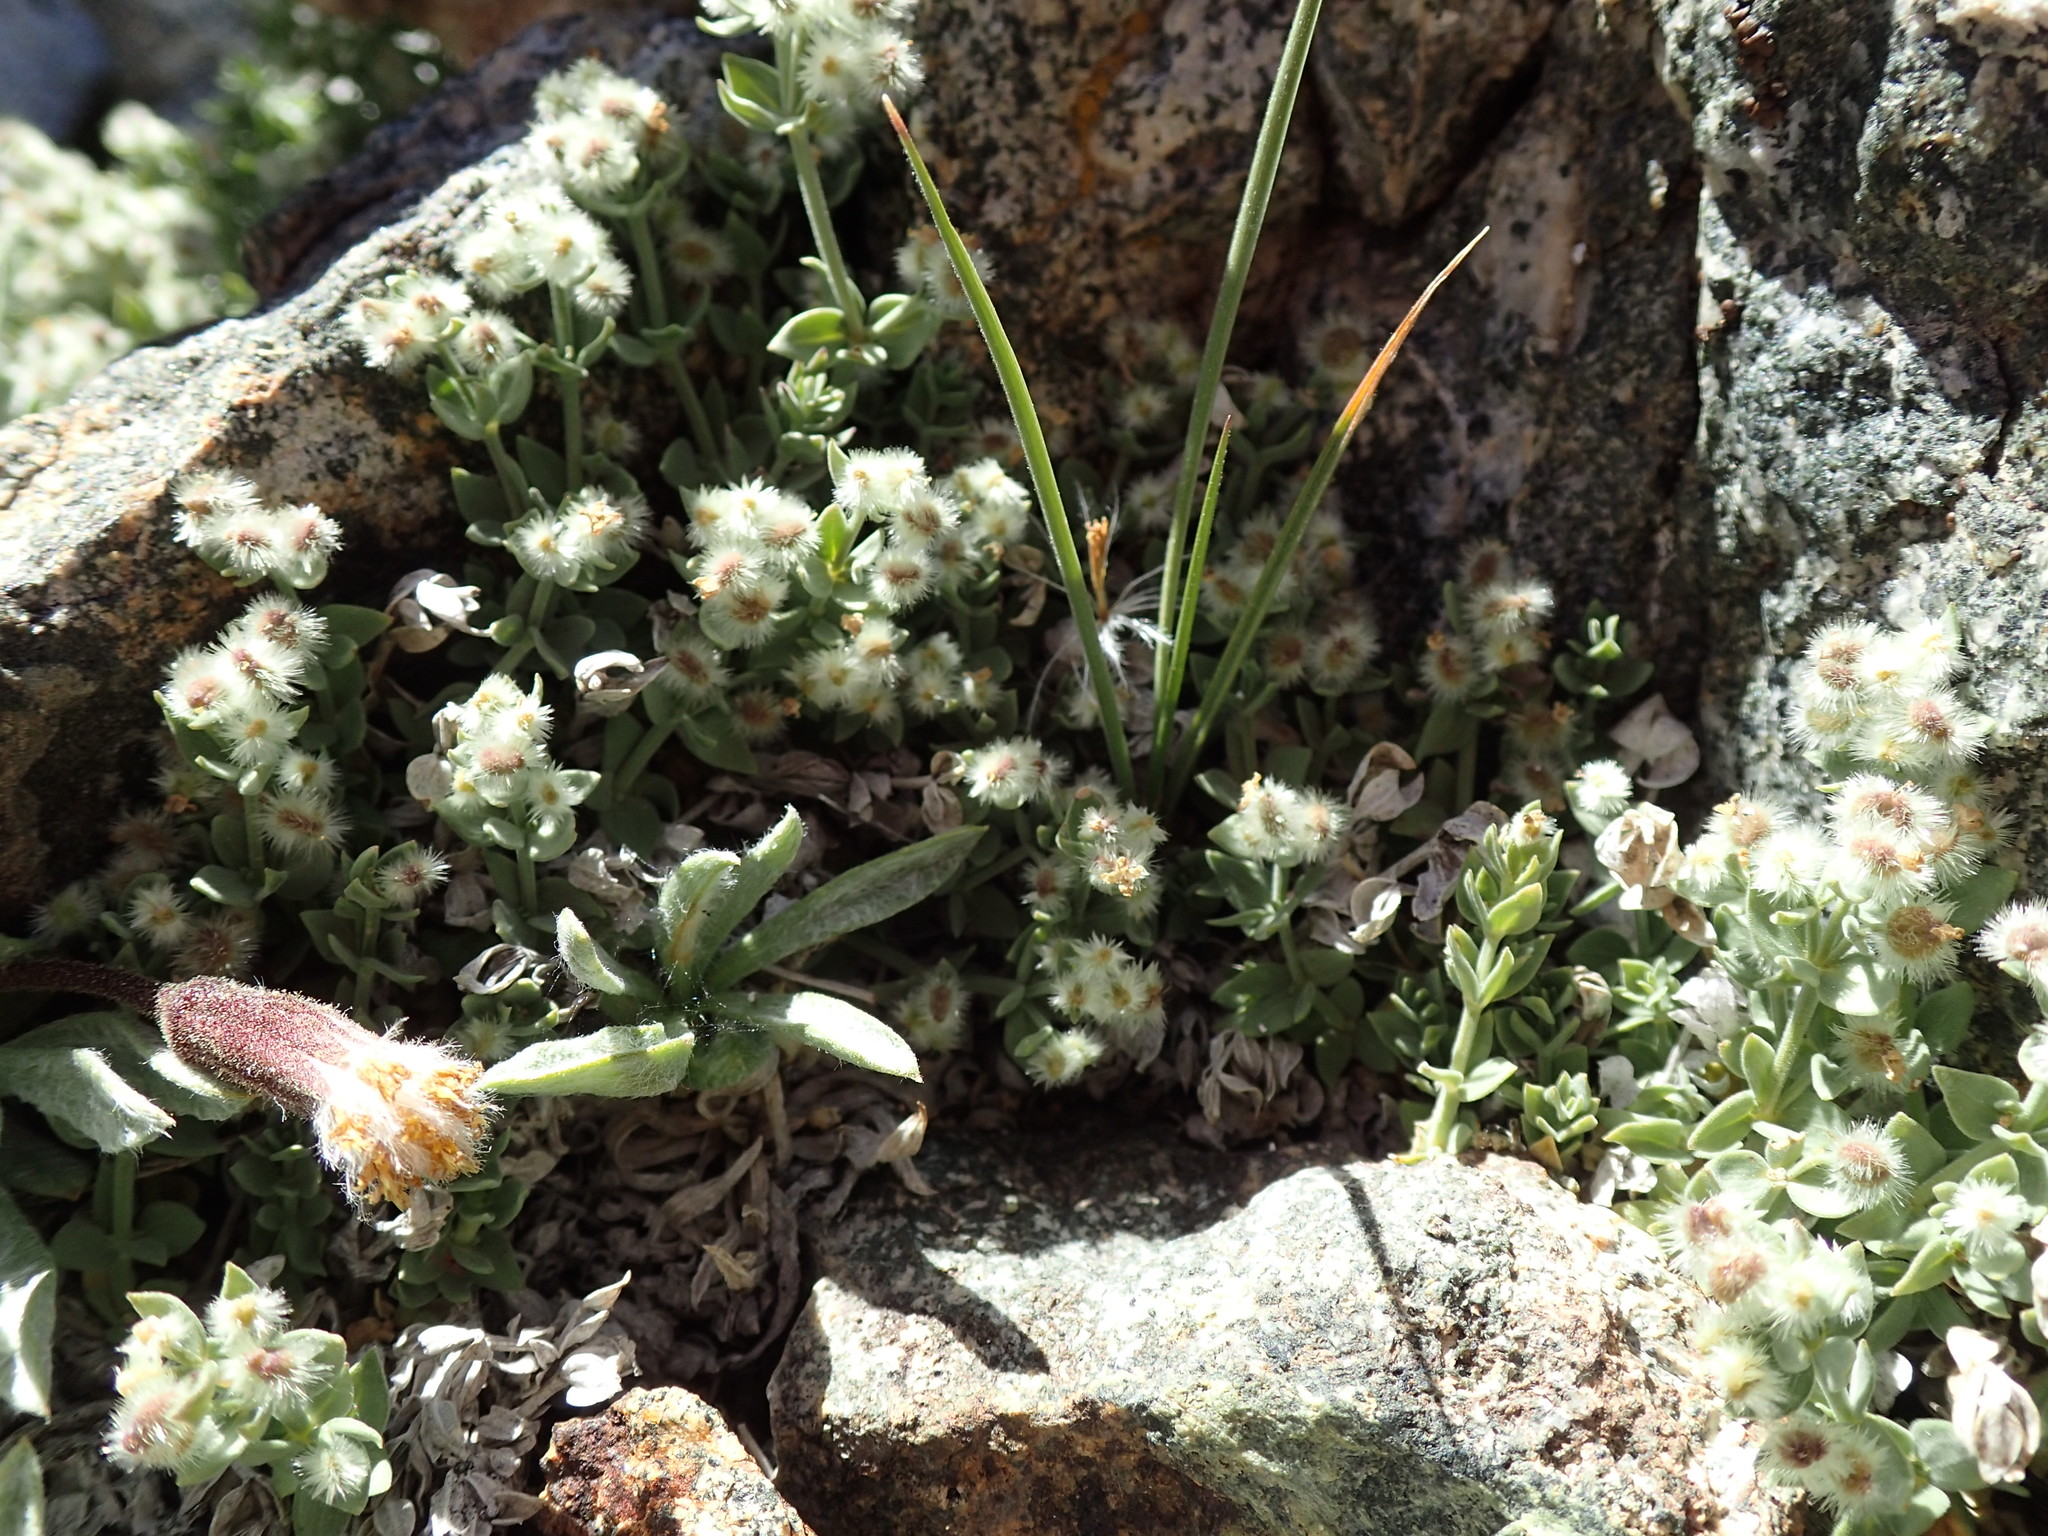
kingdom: Plantae
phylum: Tracheophyta
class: Magnoliopsida
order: Gentianales
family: Rubiaceae
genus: Galium
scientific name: Galium hypotrichium
